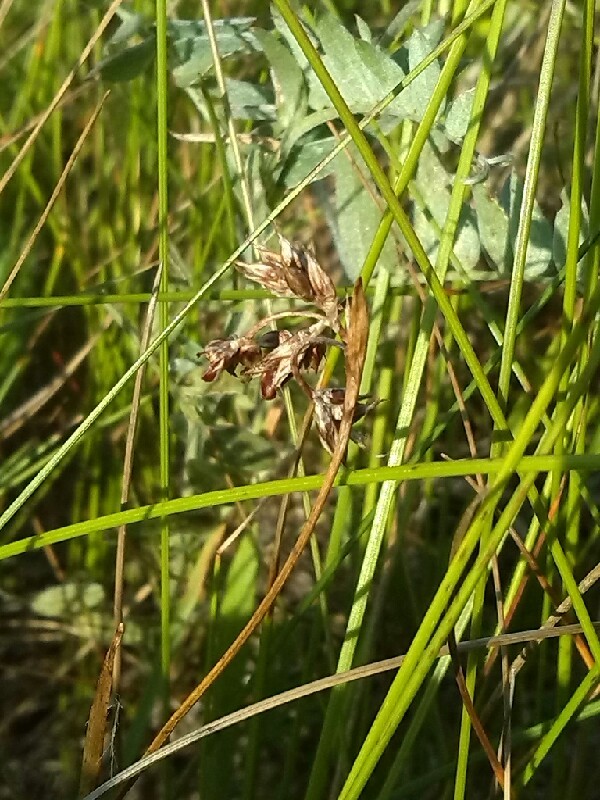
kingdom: Plantae
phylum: Tracheophyta
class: Liliopsida
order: Poales
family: Cyperaceae
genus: Carex
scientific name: Carex capillaris
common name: Hair sedge
